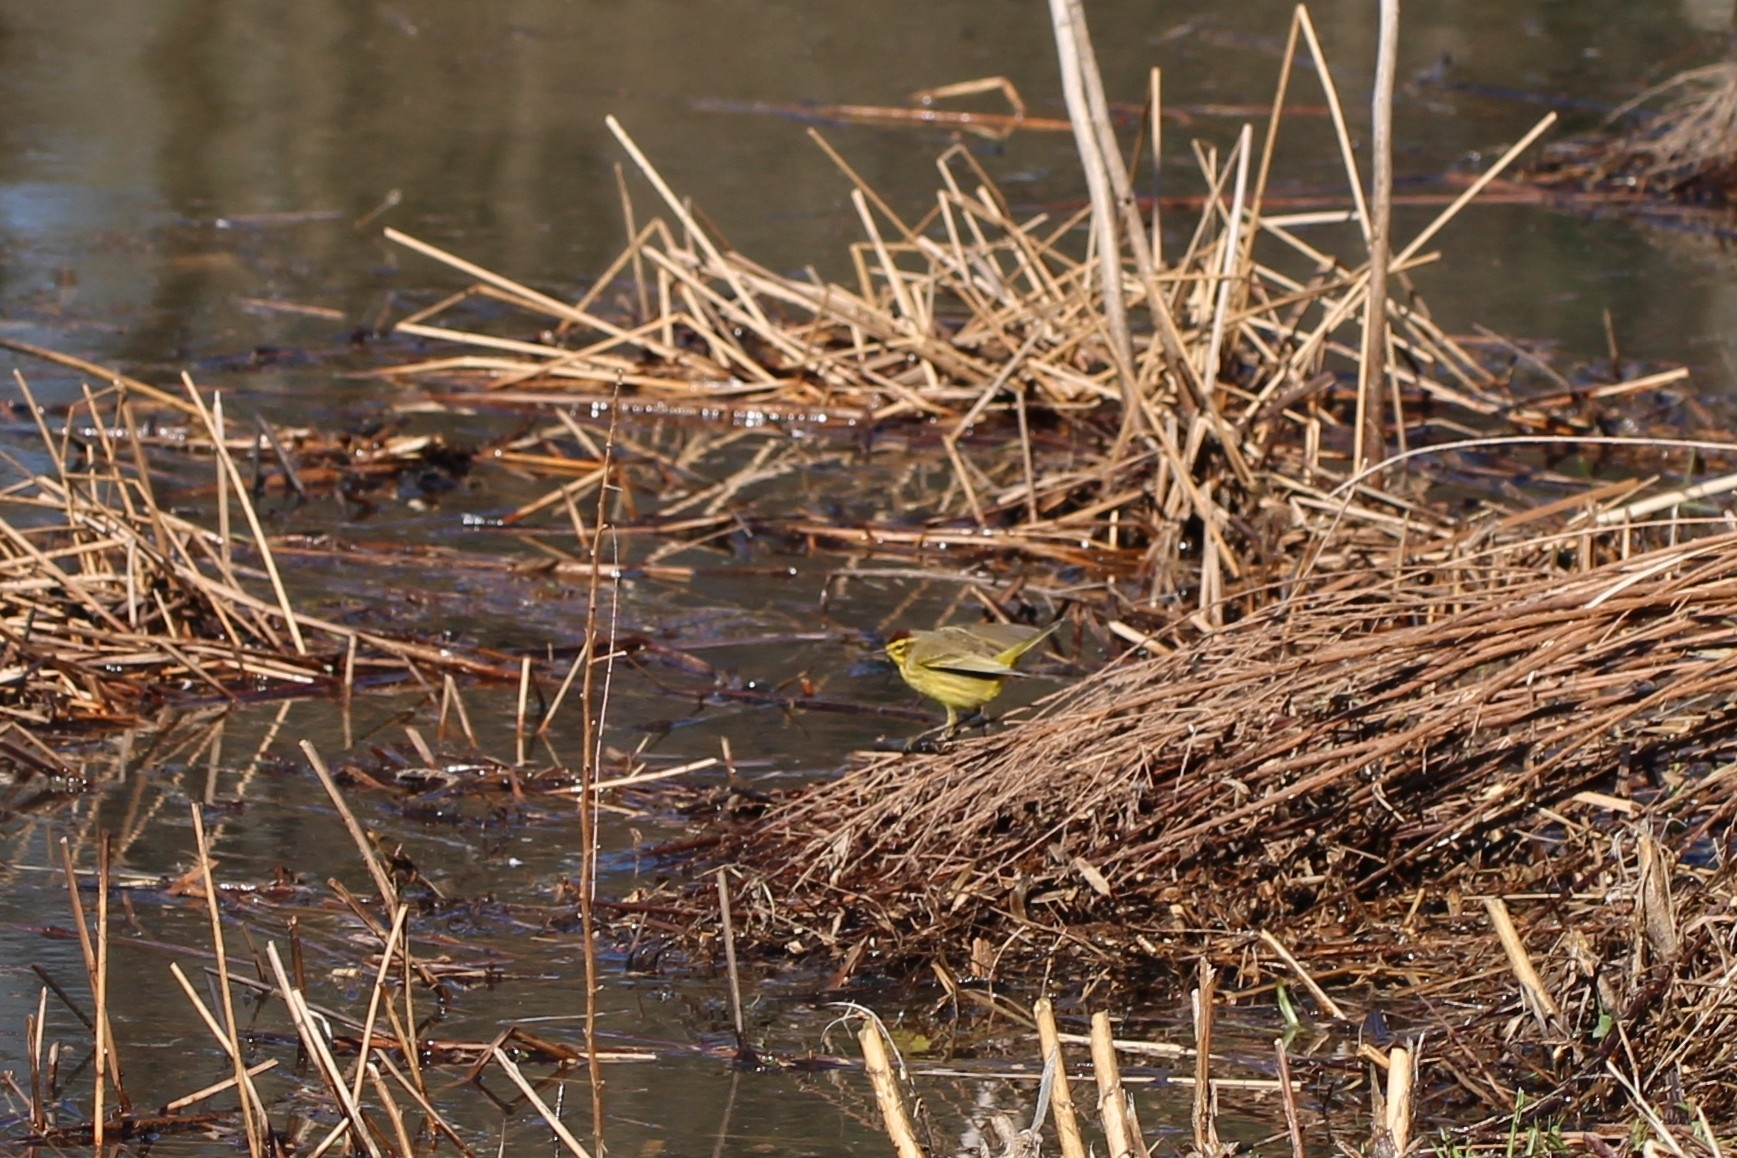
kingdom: Animalia
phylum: Chordata
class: Aves
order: Passeriformes
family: Parulidae
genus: Setophaga
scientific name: Setophaga palmarum
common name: Palm warbler
